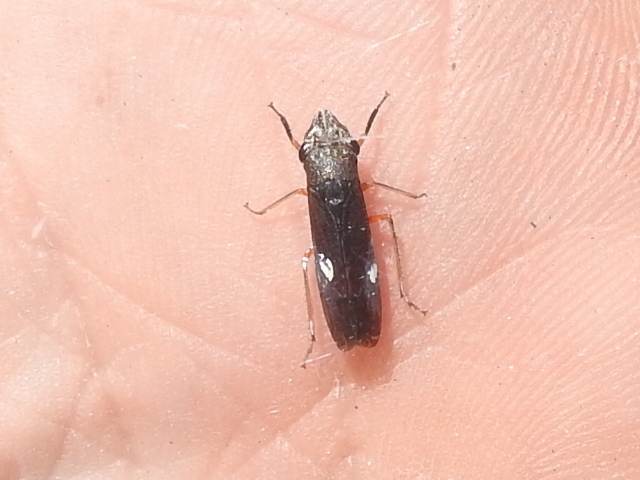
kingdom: Animalia
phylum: Arthropoda
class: Insecta
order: Hemiptera
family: Cicadellidae
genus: Homalodisca
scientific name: Homalodisca insolita
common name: Johnson grass sharpshooter
